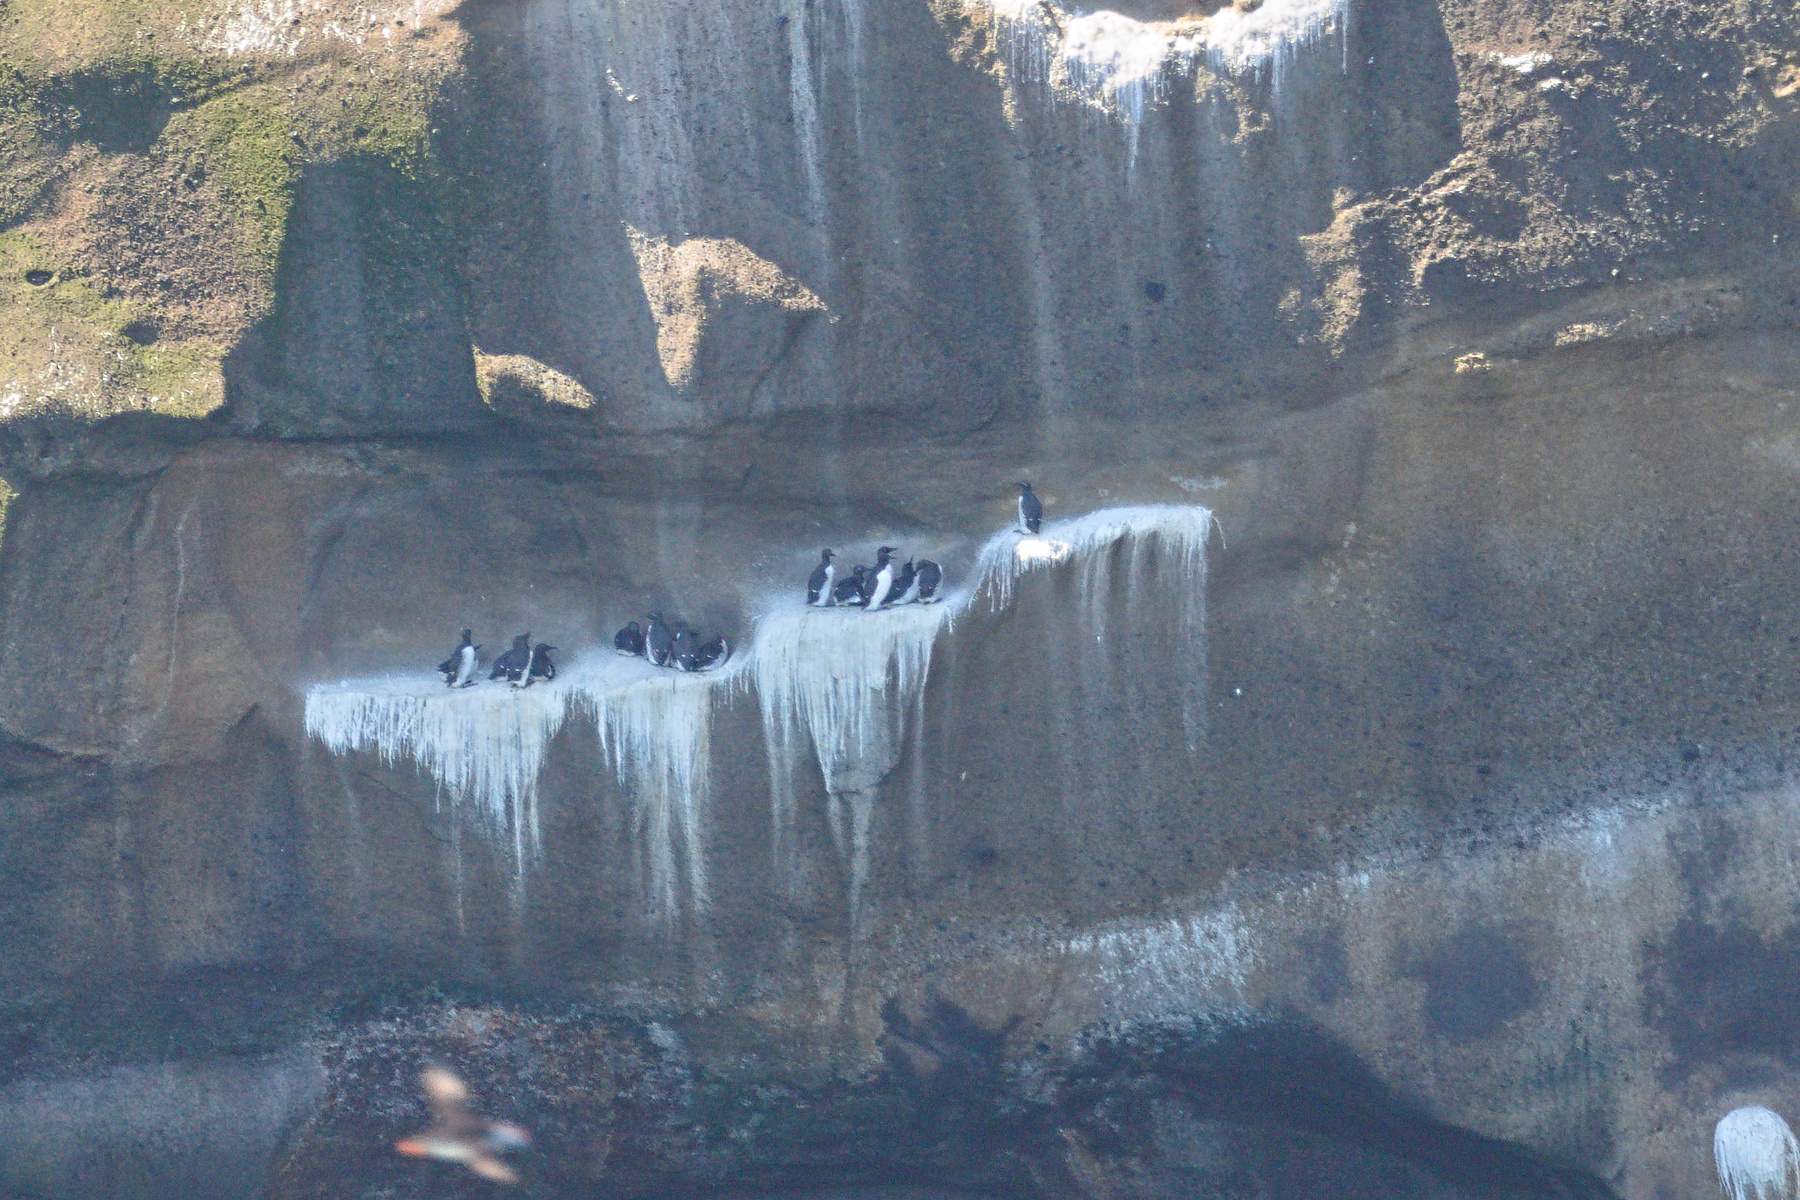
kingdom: Animalia
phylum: Chordata
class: Aves
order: Charadriiformes
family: Alcidae
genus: Uria
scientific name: Uria aalge
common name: Common murre
